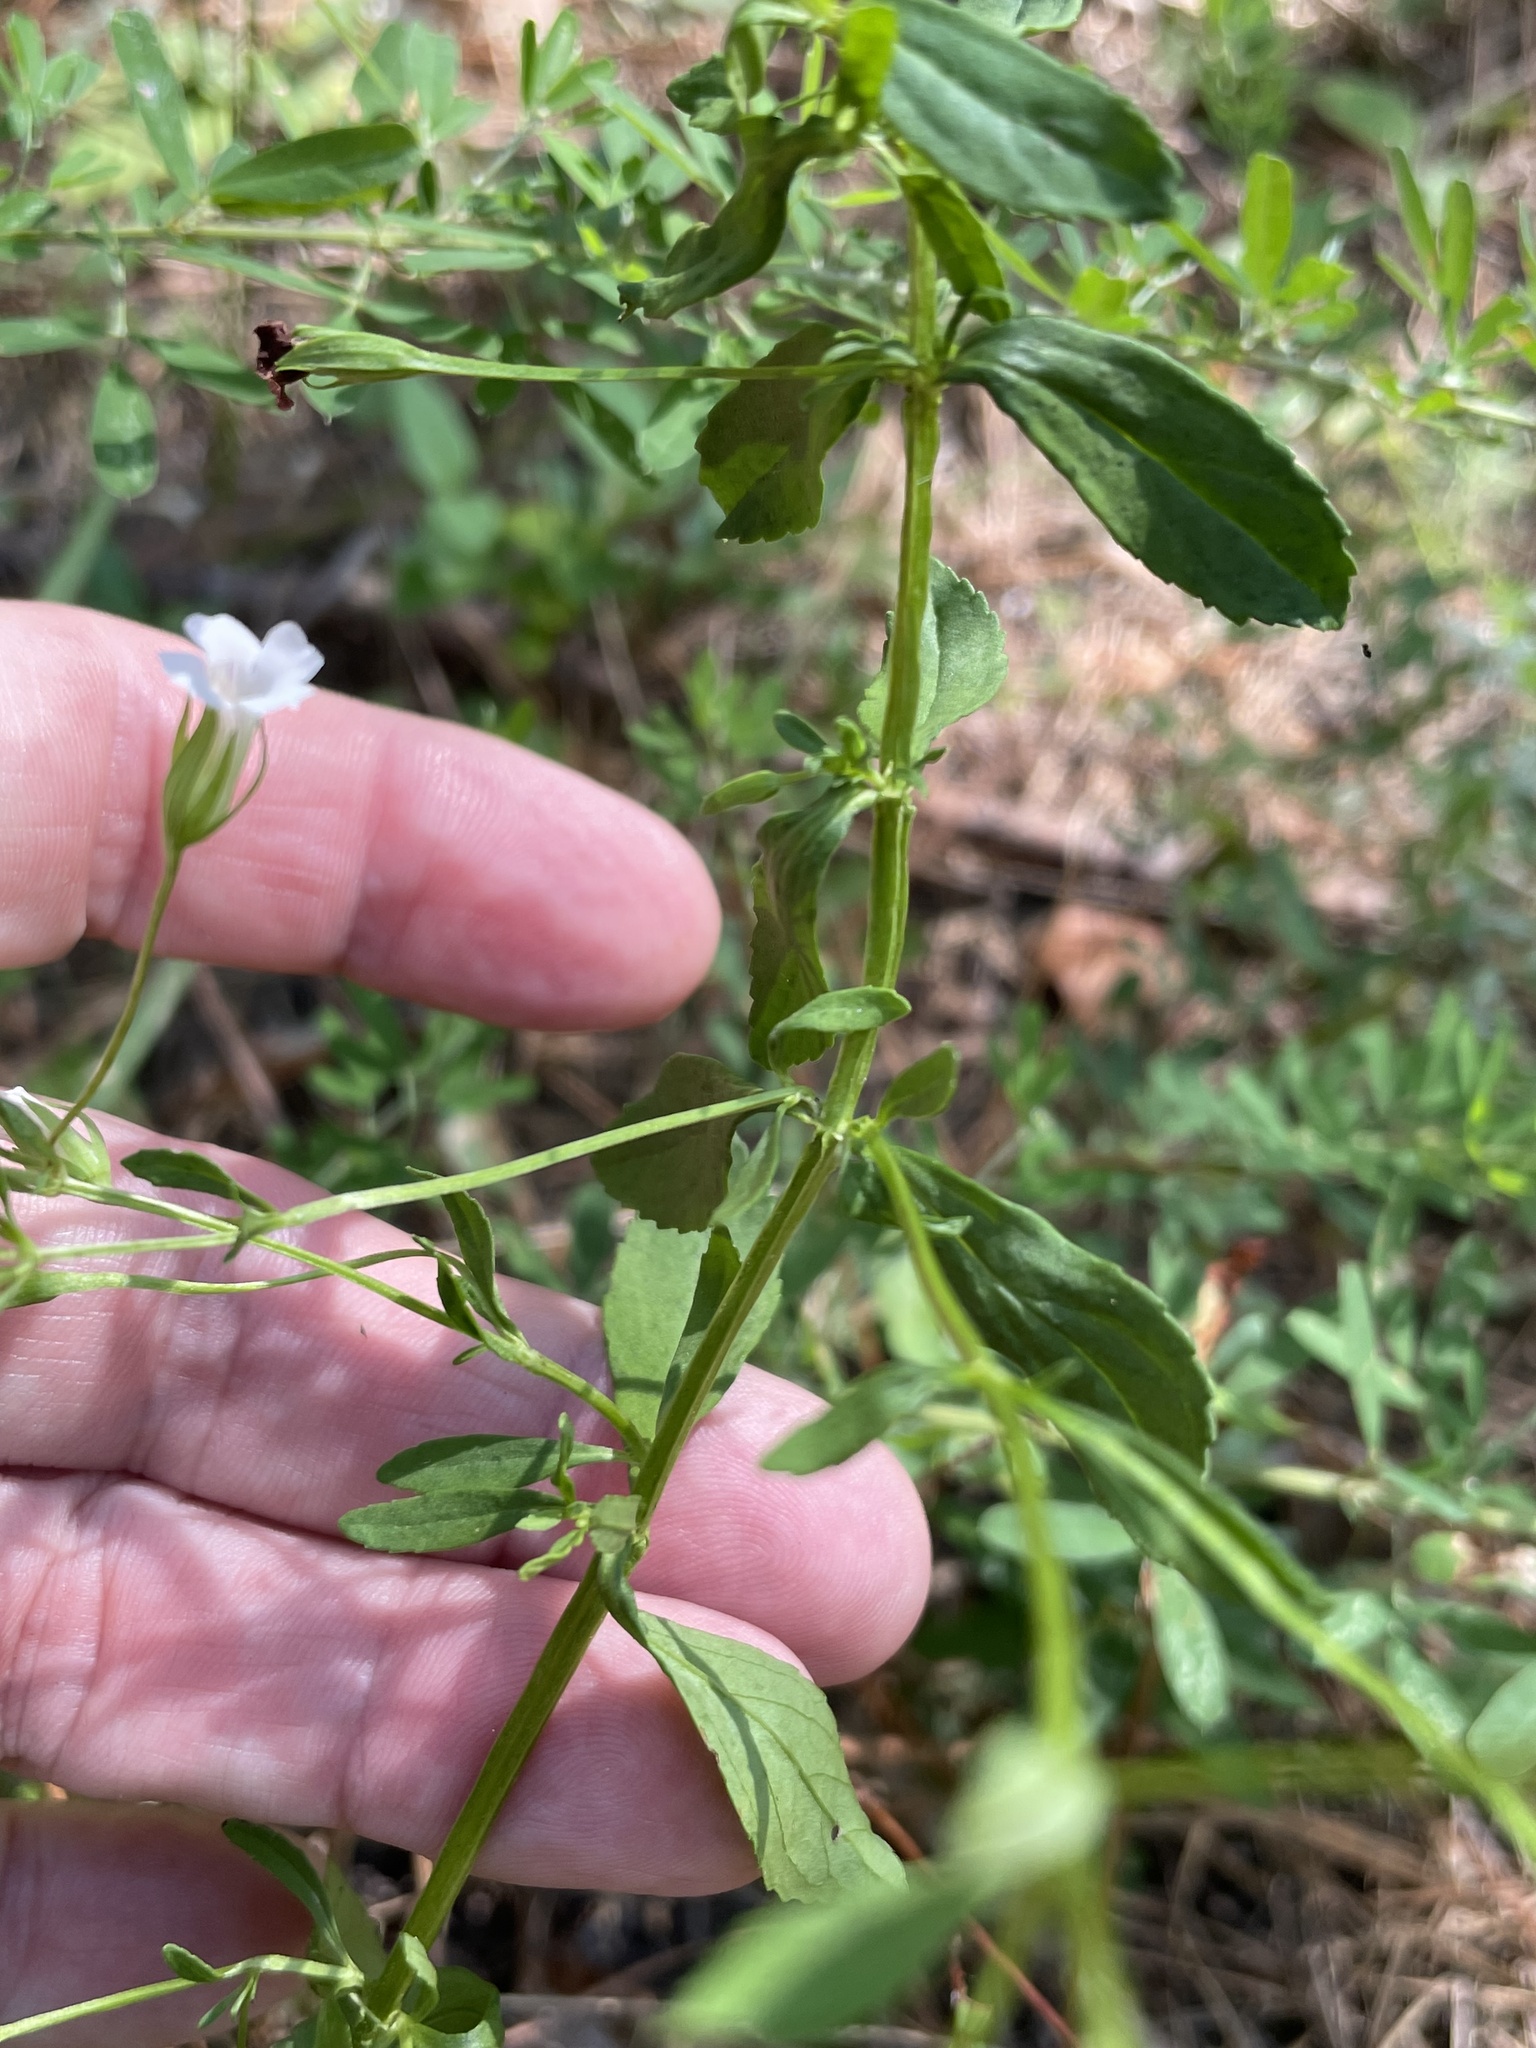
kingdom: Plantae
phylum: Tracheophyta
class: Magnoliopsida
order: Lamiales
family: Plantaginaceae
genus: Mecardonia
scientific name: Mecardonia acuminata
